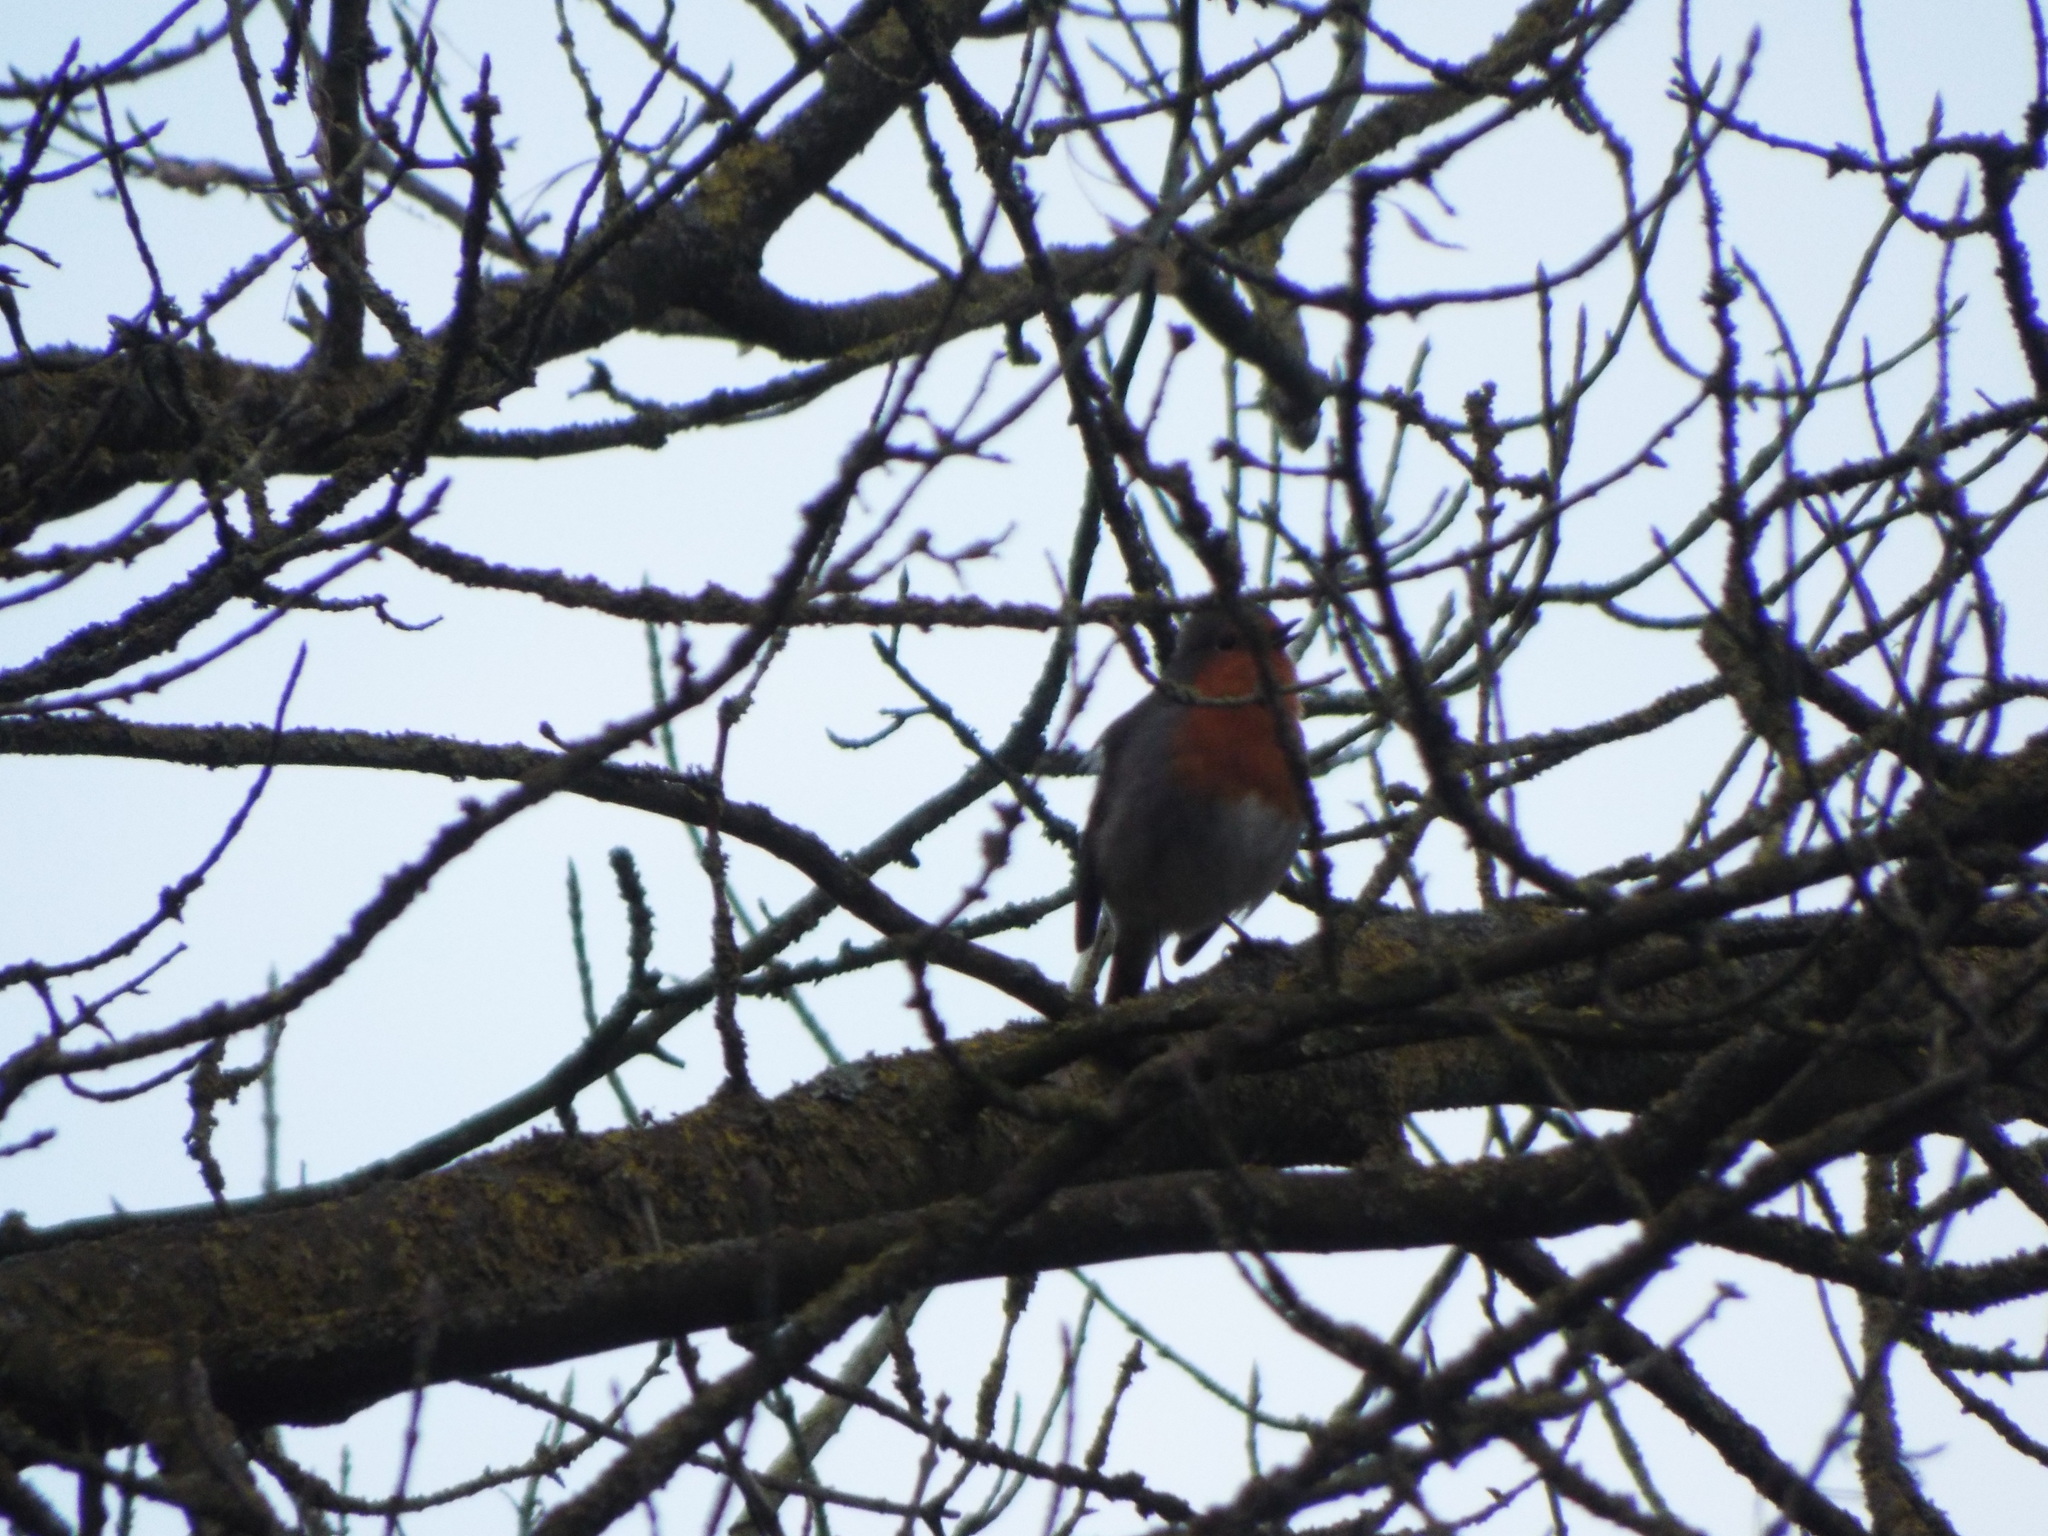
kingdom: Animalia
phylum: Chordata
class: Aves
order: Passeriformes
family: Muscicapidae
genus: Erithacus
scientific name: Erithacus rubecula
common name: European robin
